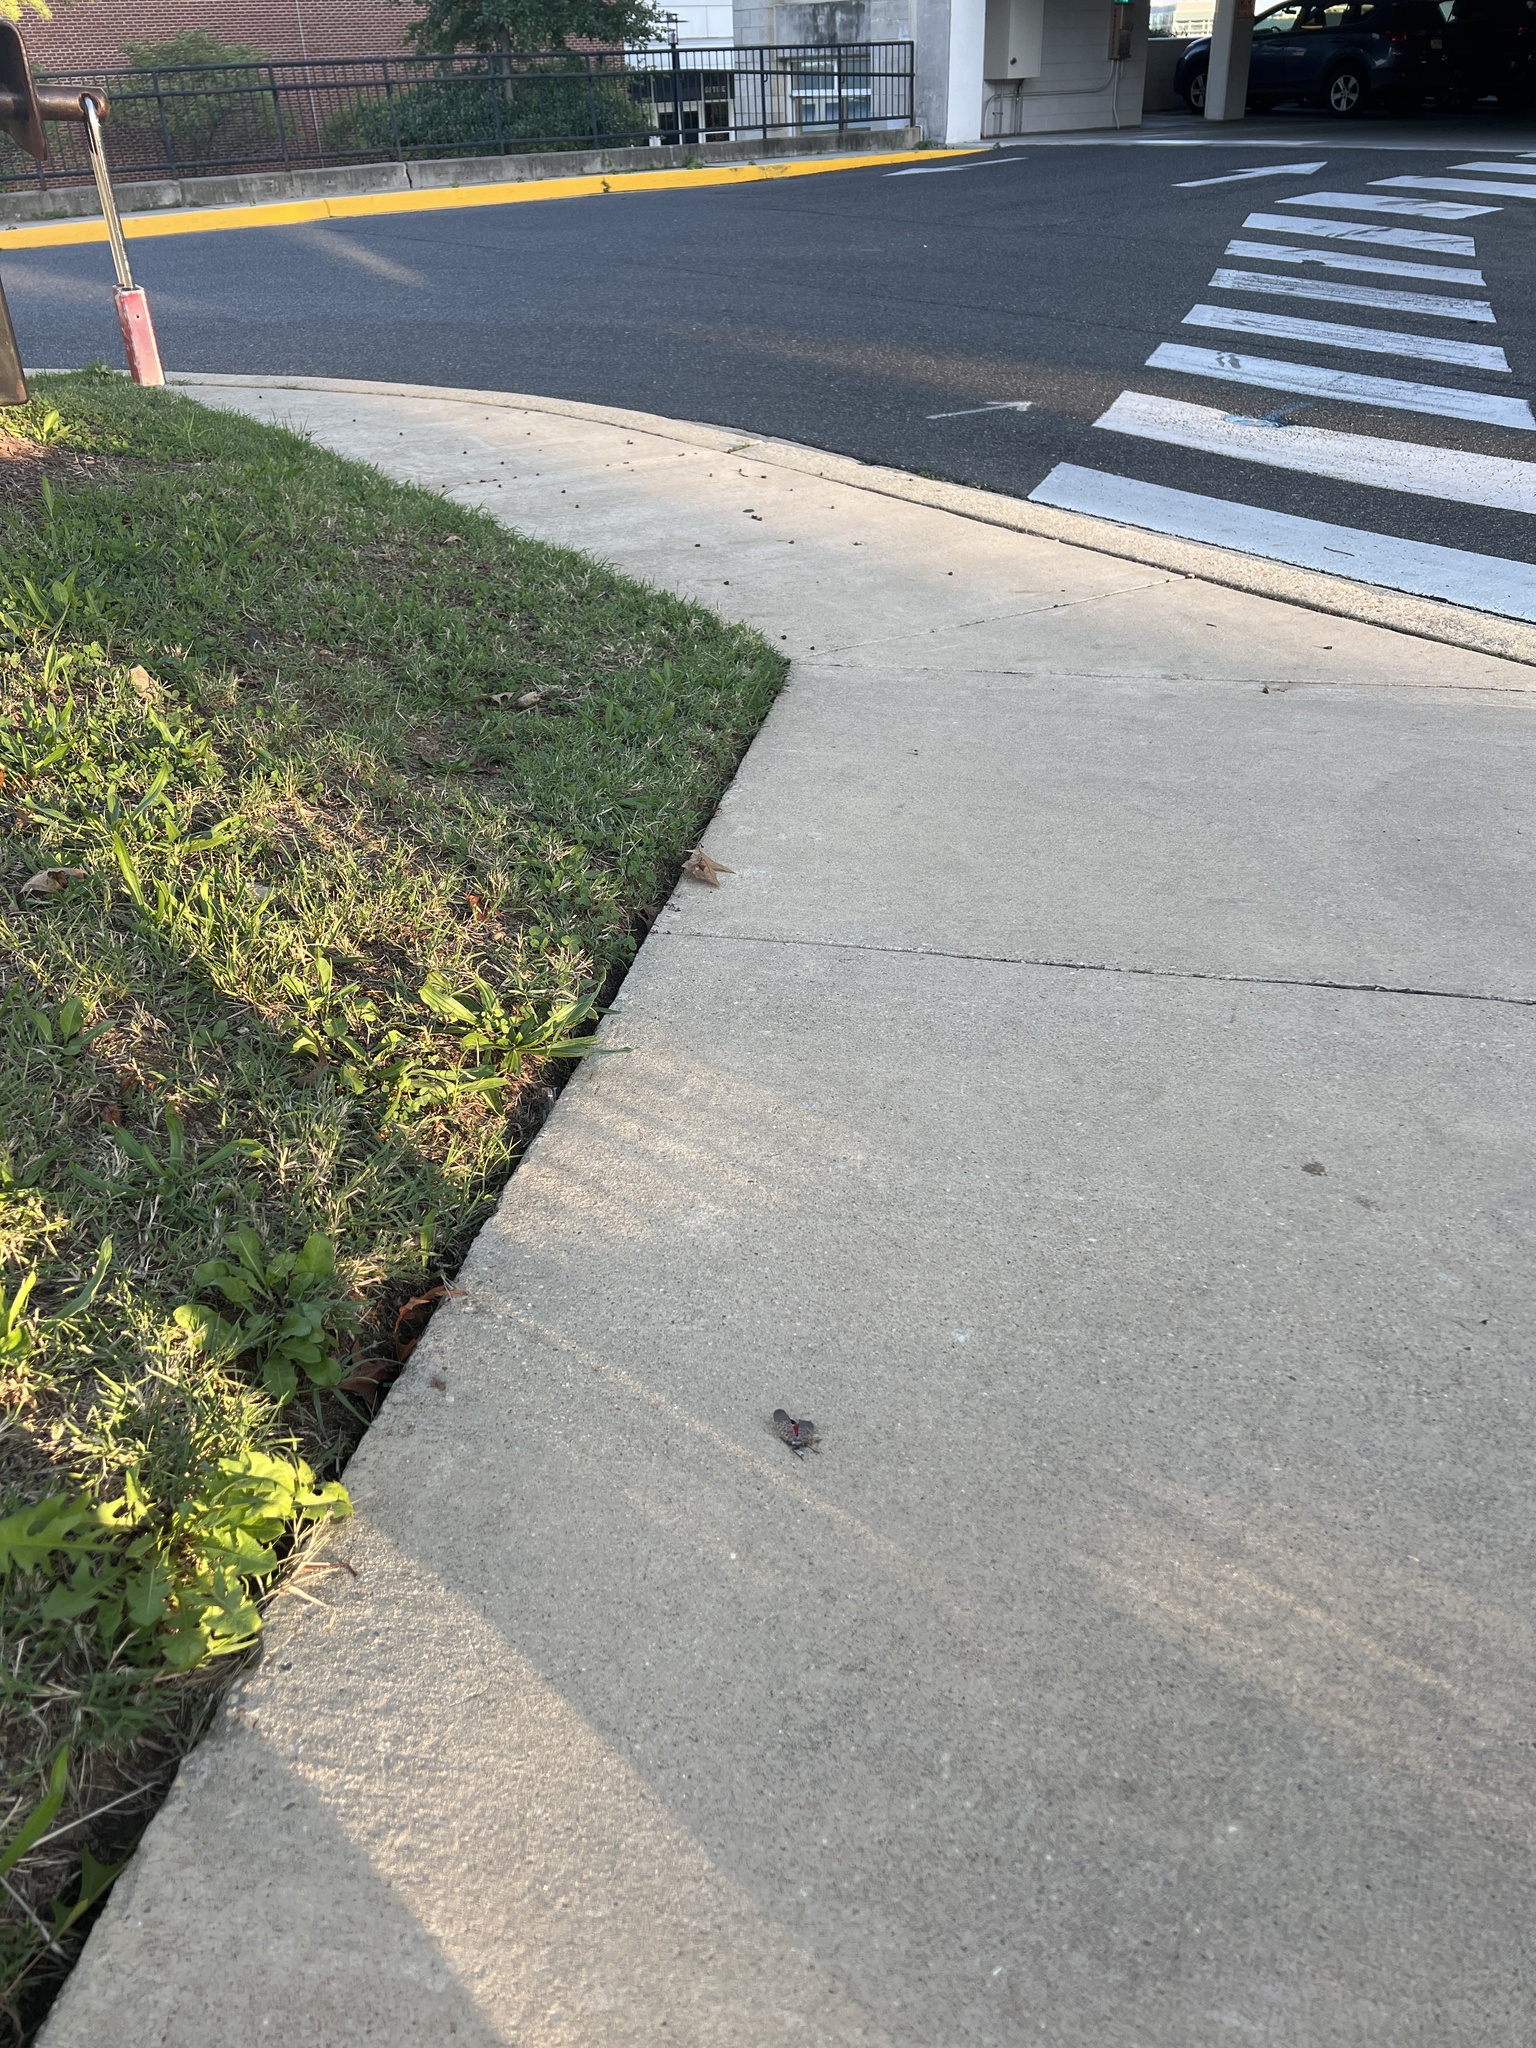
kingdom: Animalia
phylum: Arthropoda
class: Insecta
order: Hemiptera
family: Fulgoridae
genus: Lycorma
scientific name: Lycorma delicatula
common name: Spotted lanternfly
